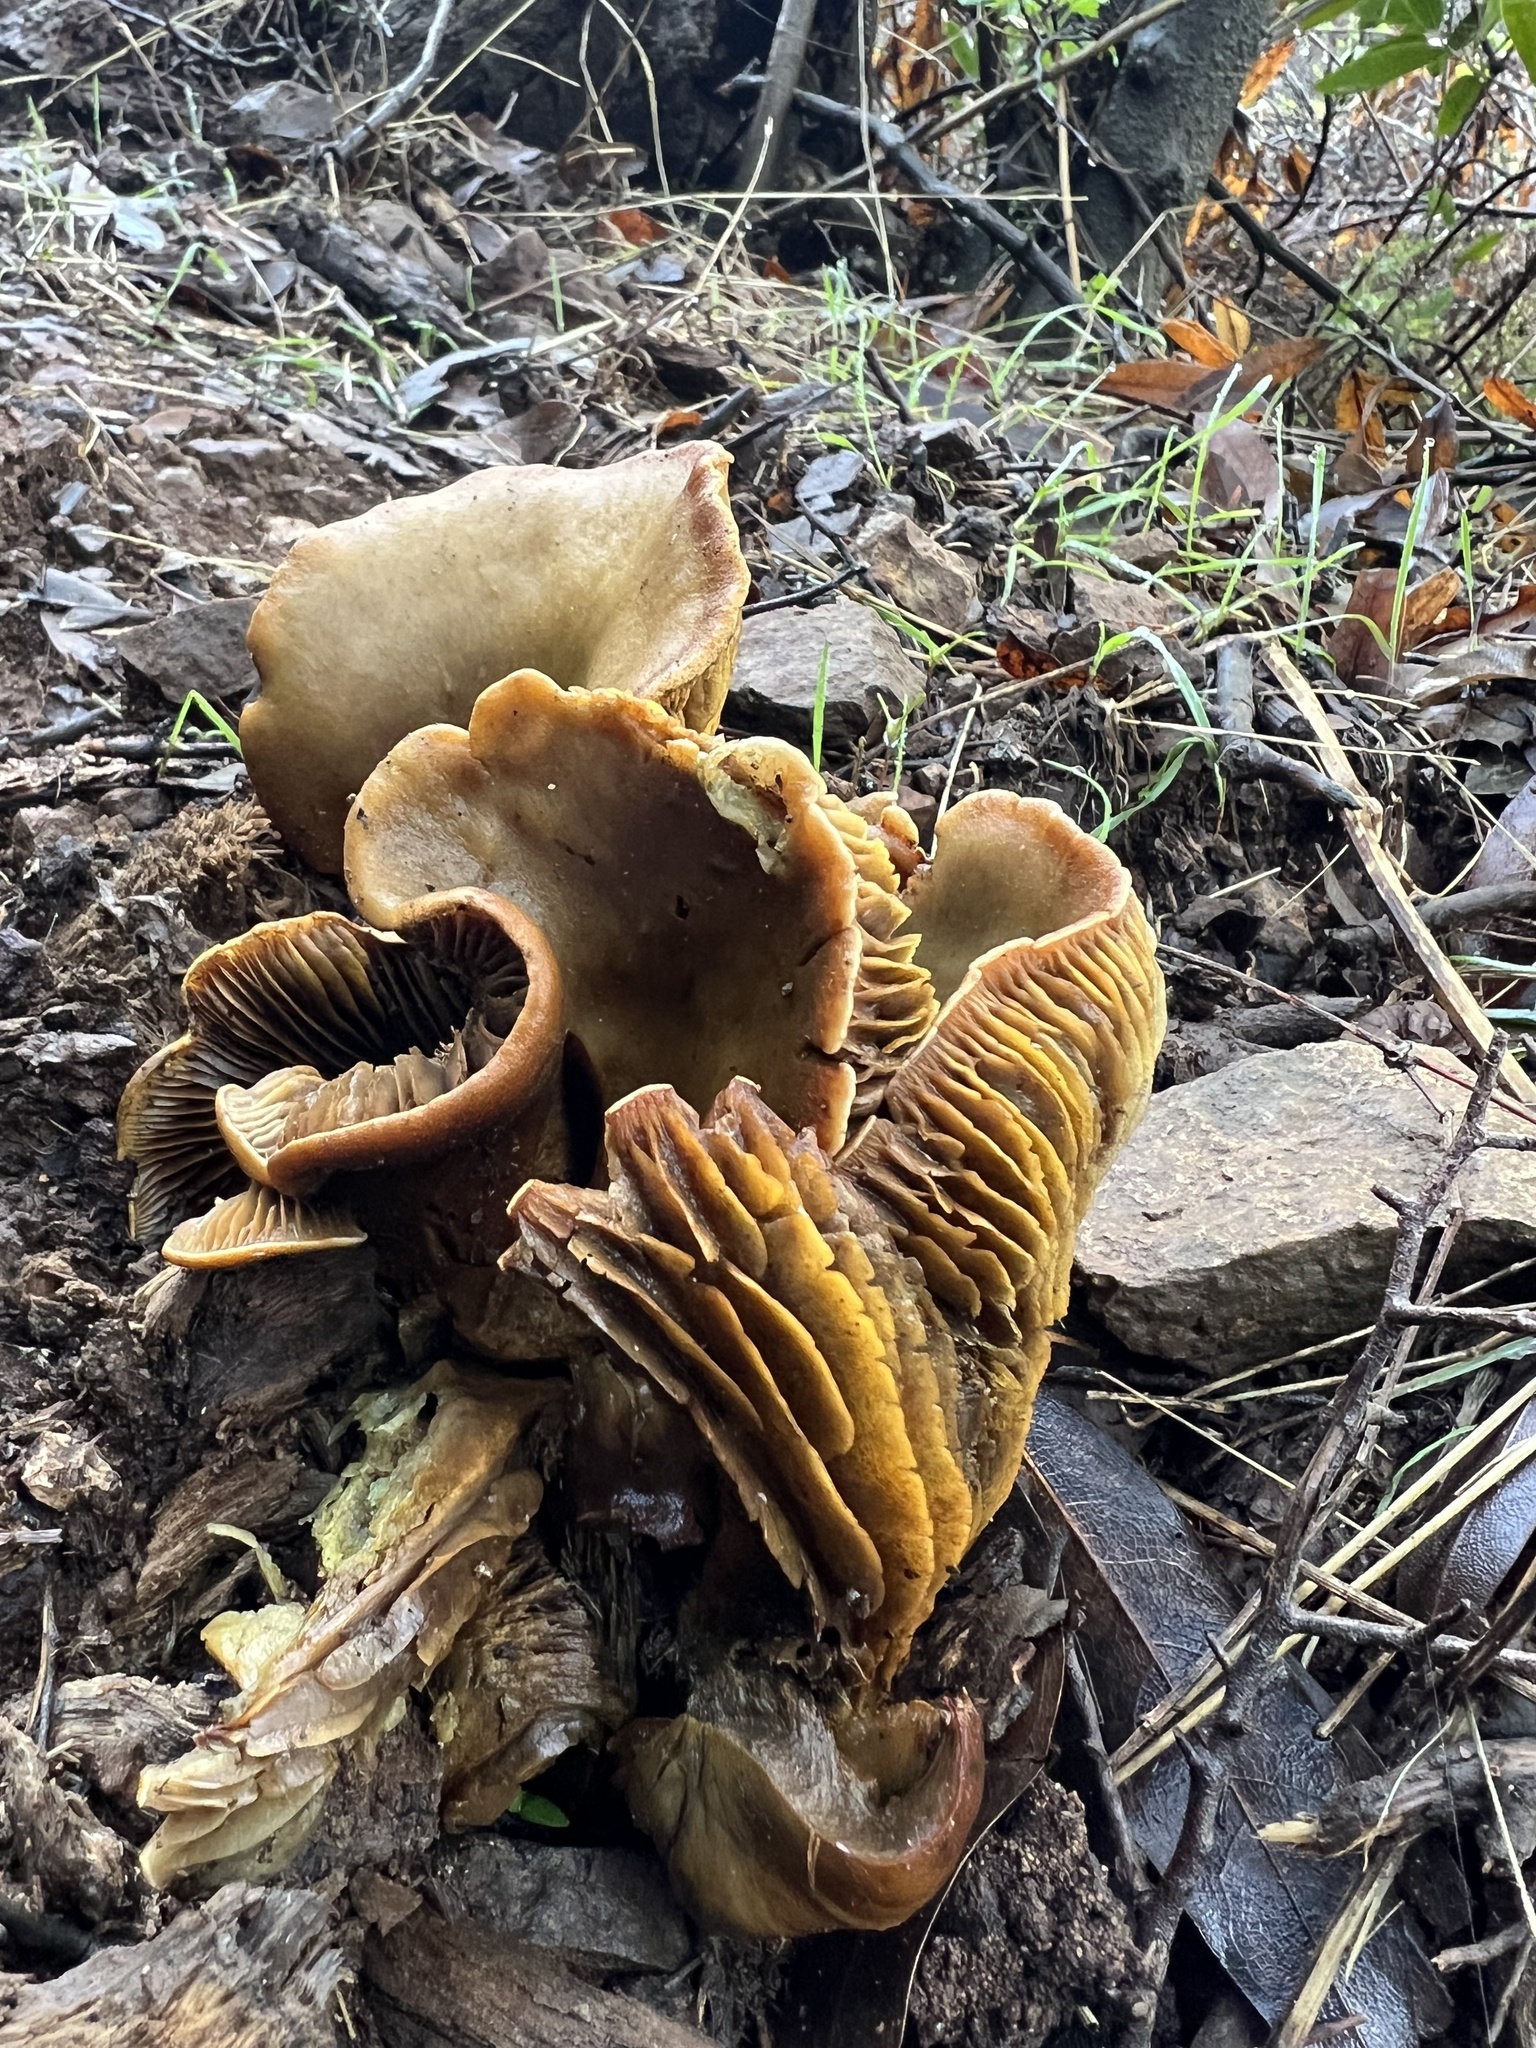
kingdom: Fungi
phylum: Basidiomycota
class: Agaricomycetes
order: Agaricales
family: Omphalotaceae
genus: Omphalotus
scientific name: Omphalotus olivascens
